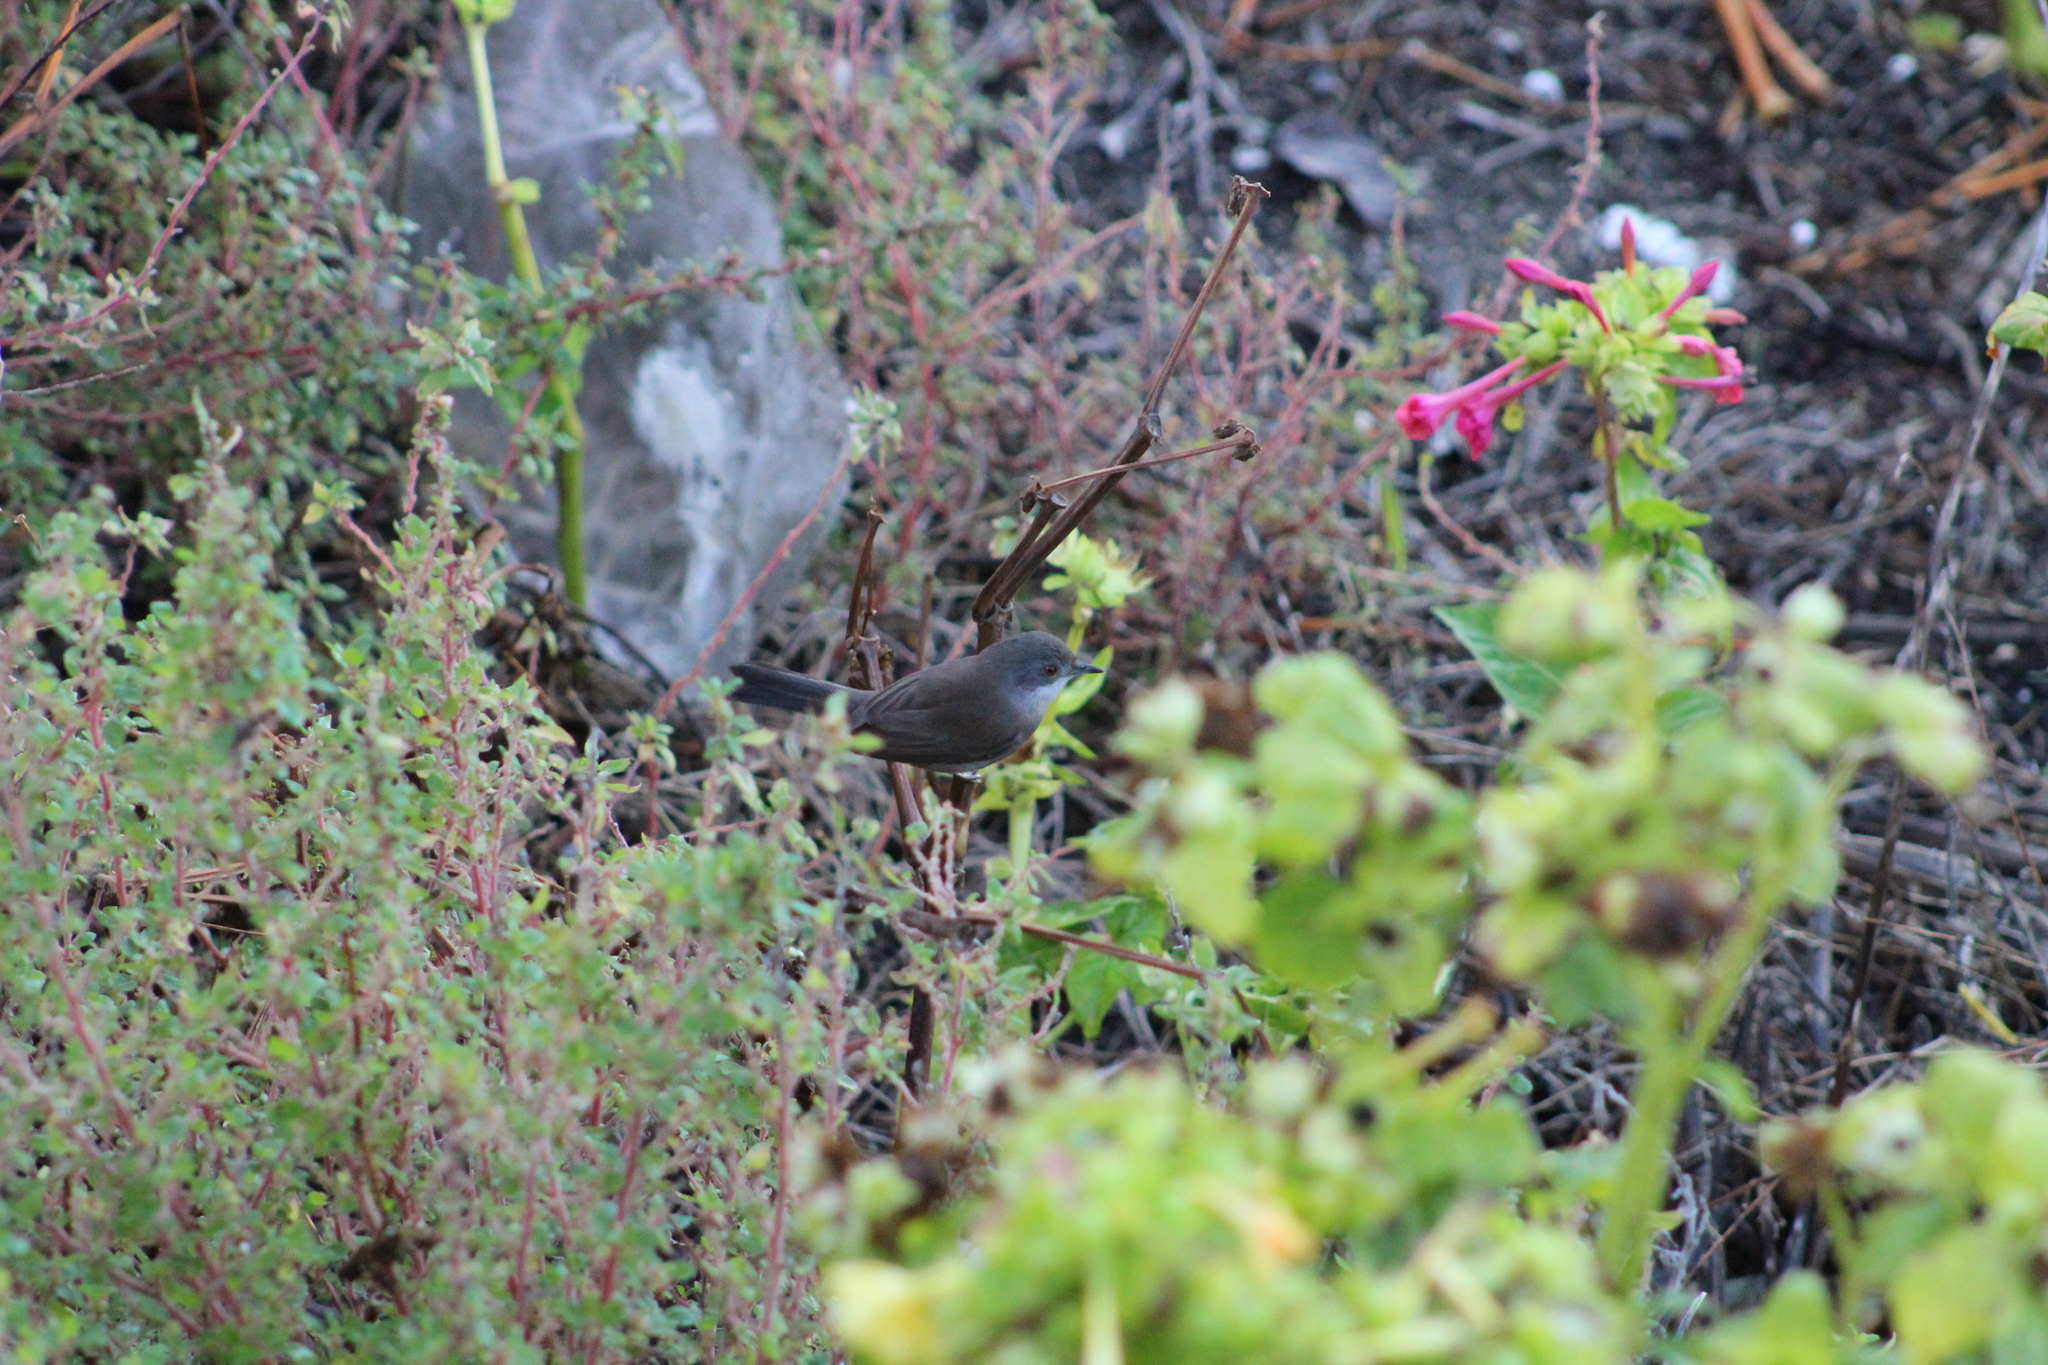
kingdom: Animalia
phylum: Chordata
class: Aves
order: Passeriformes
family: Sylviidae
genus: Curruca
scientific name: Curruca melanocephala
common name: Sardinian warbler
